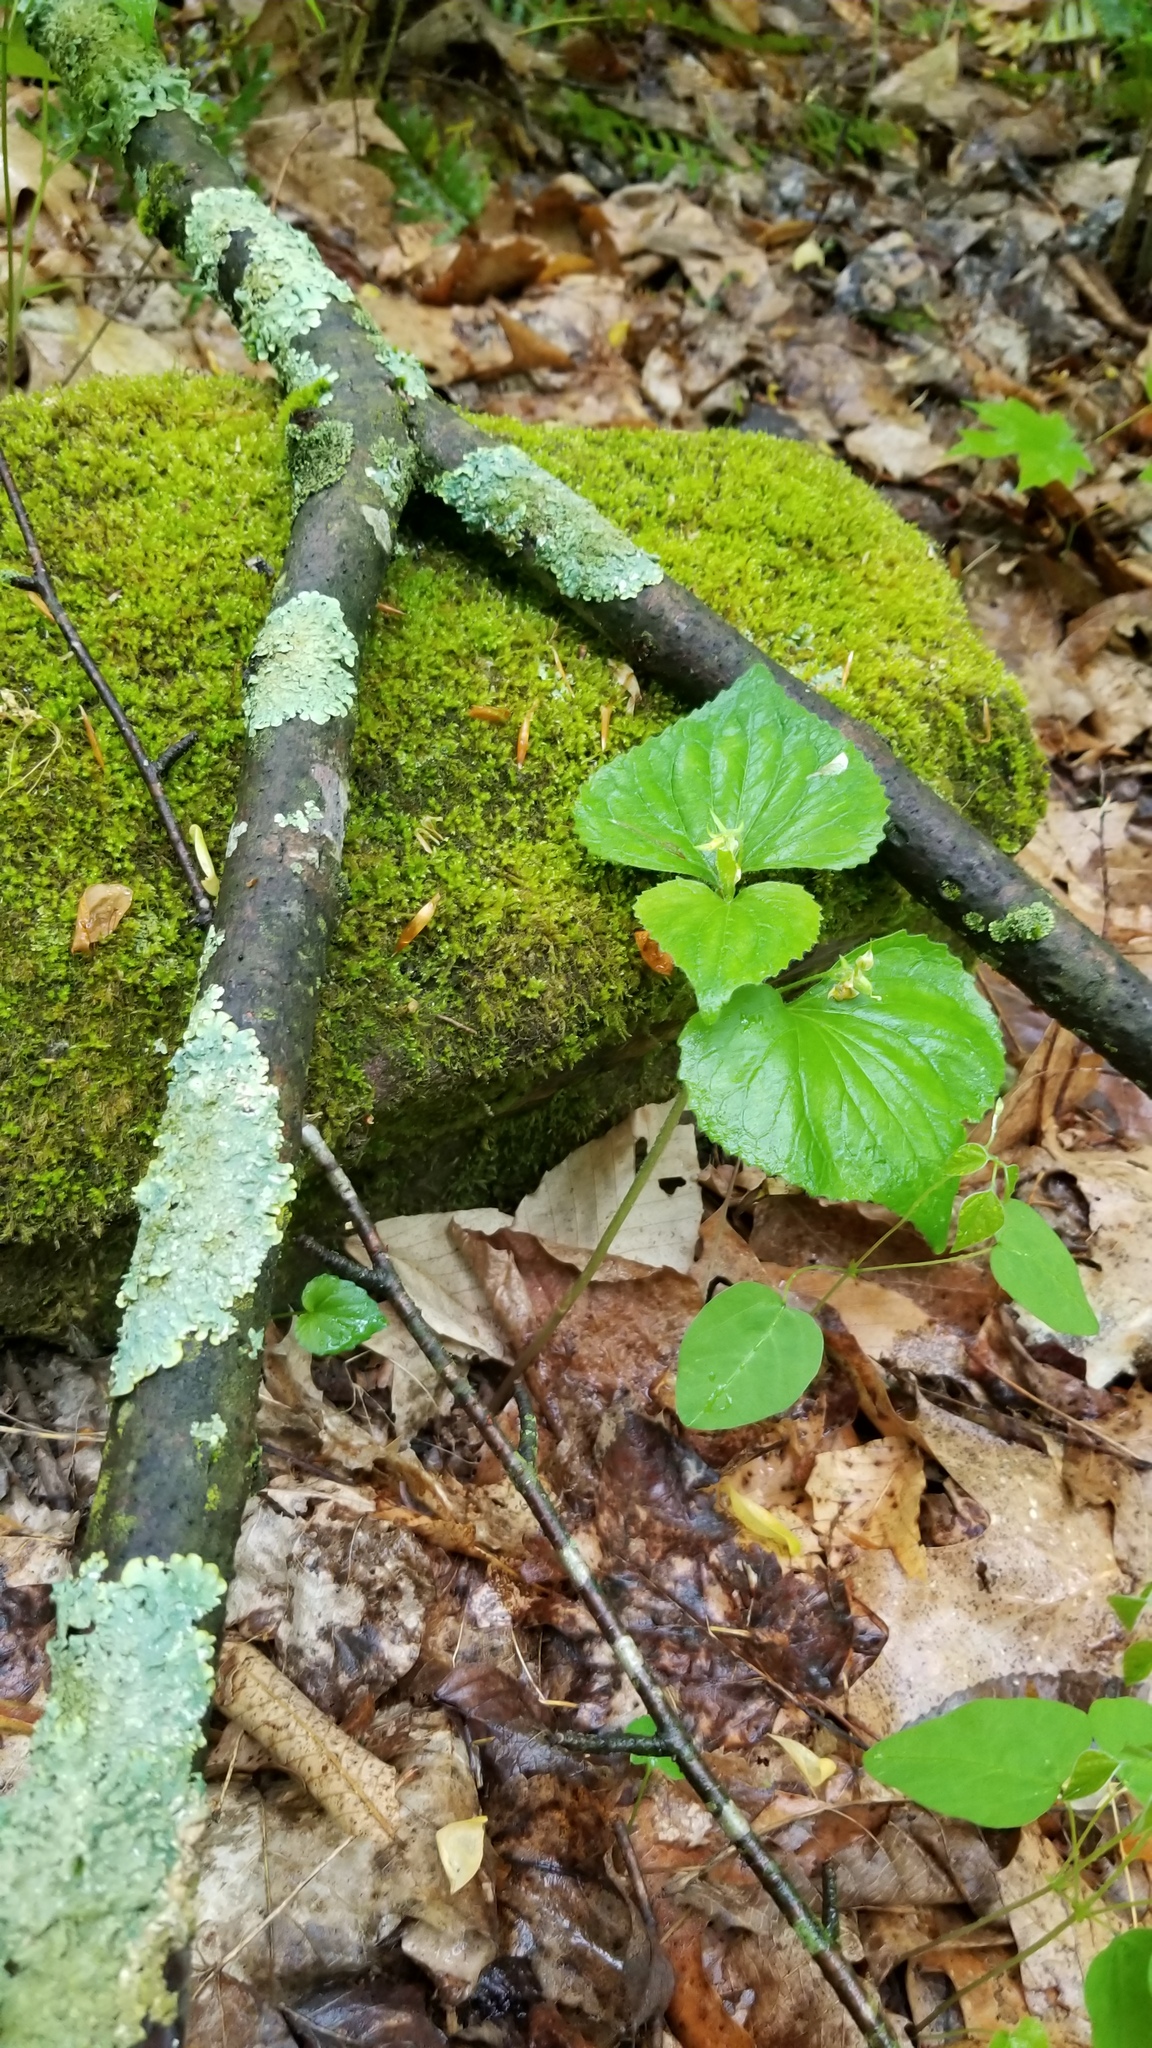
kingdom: Plantae
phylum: Tracheophyta
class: Magnoliopsida
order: Malpighiales
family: Violaceae
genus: Viola
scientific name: Viola pubescens
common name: Yellow forest violet
